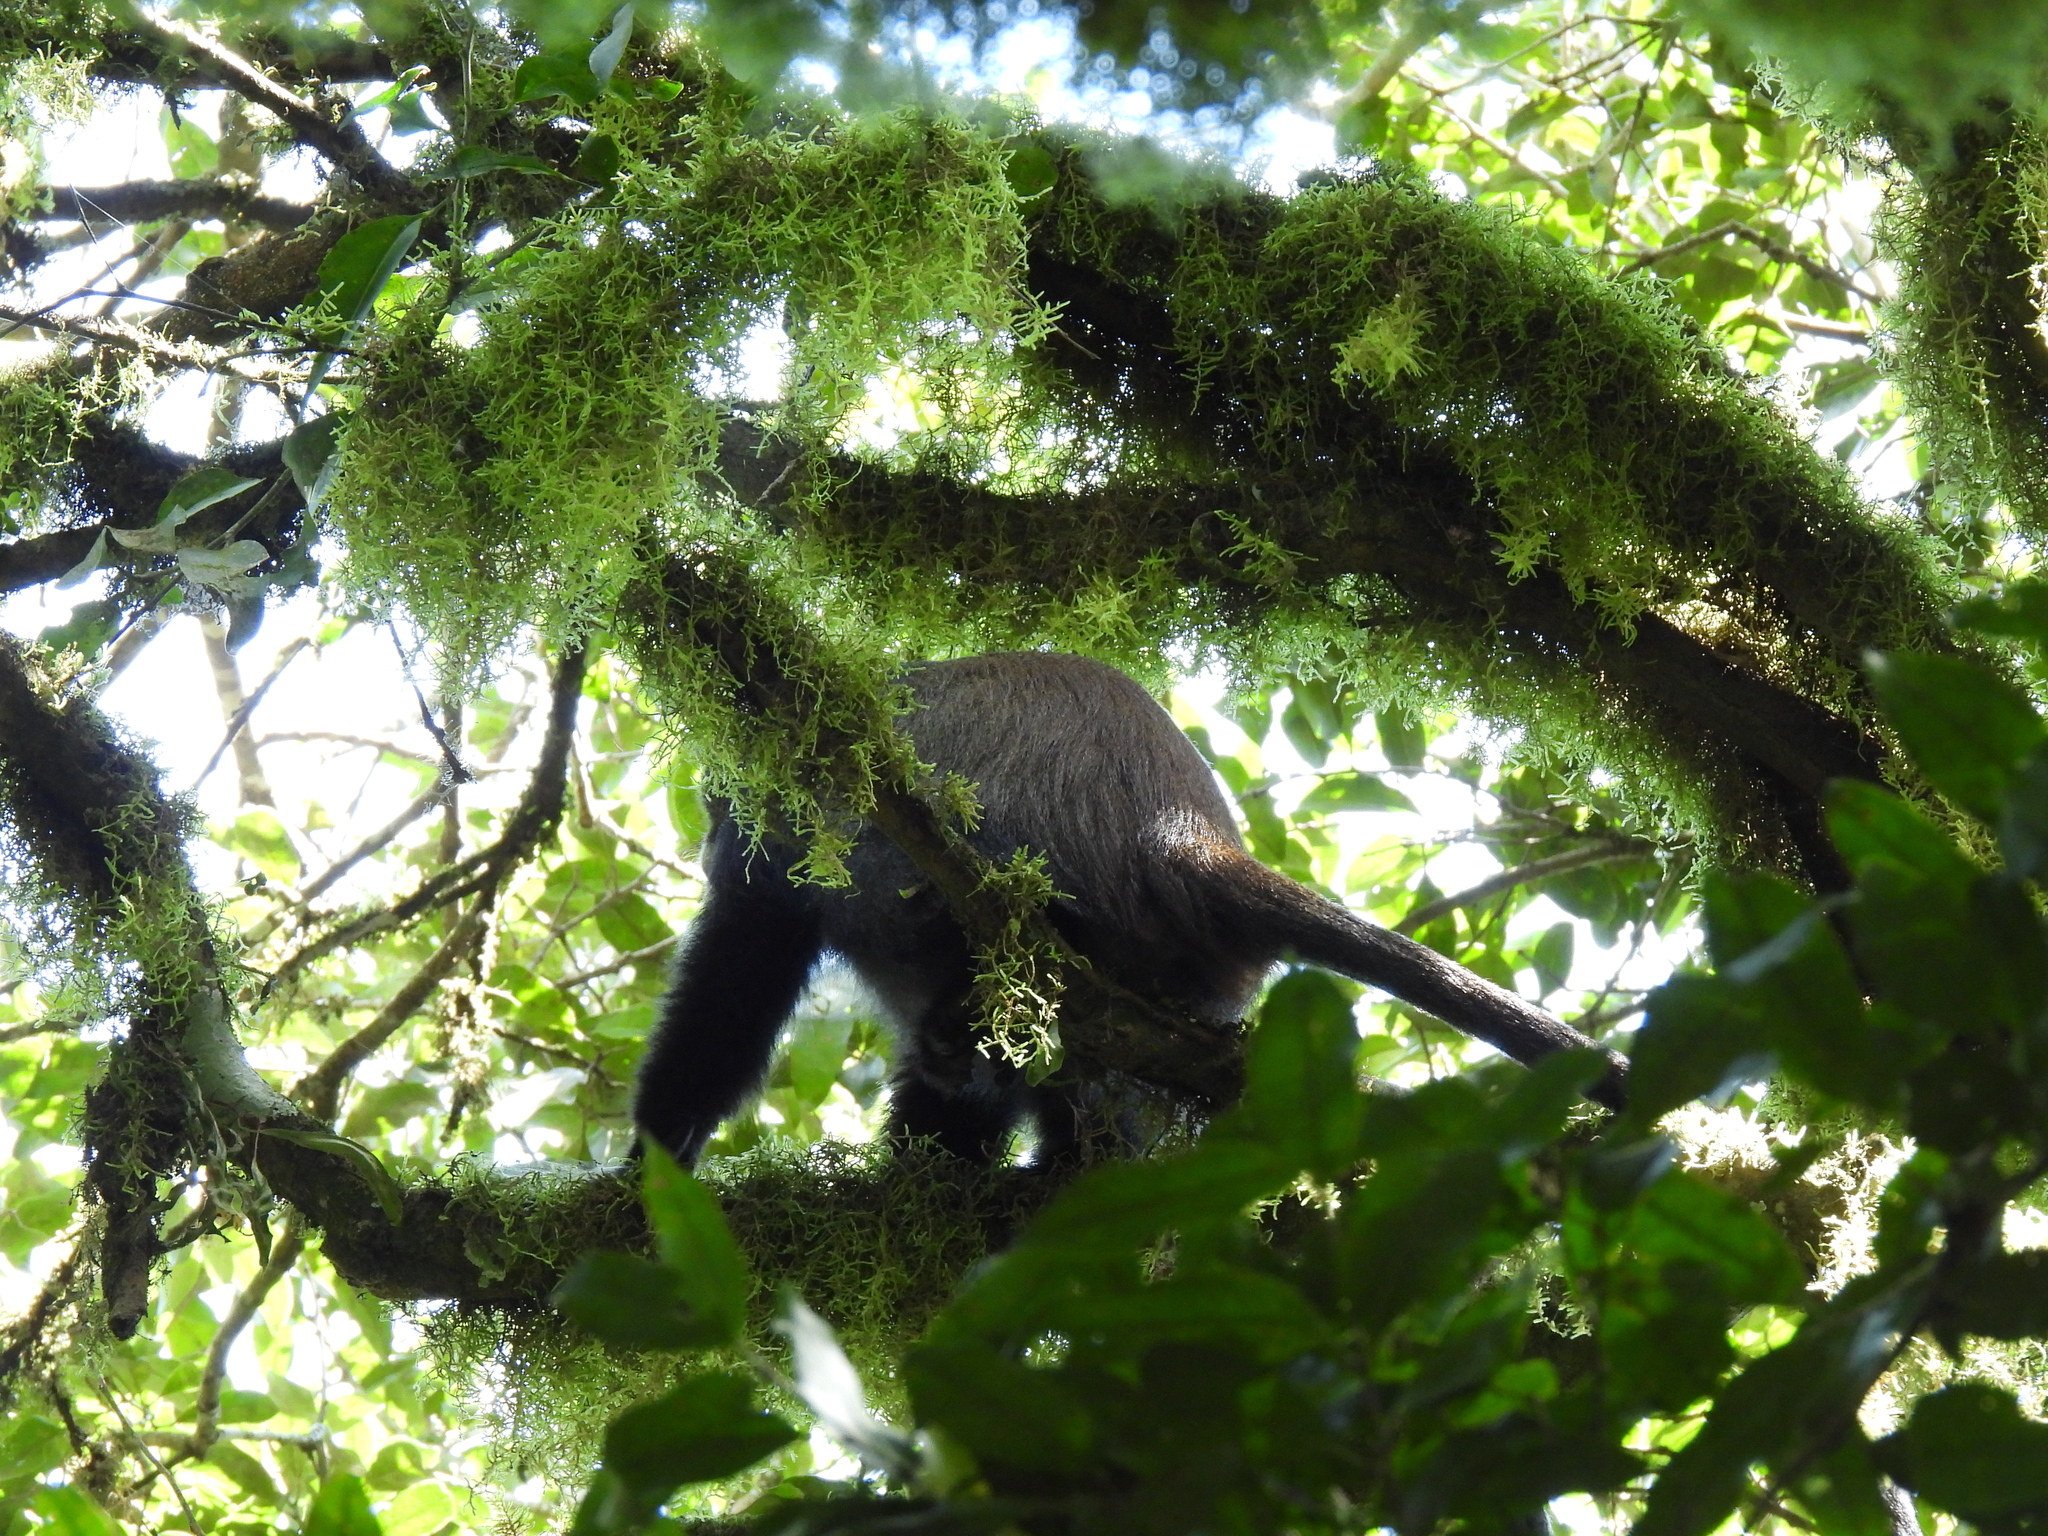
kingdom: Animalia
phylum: Chordata
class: Mammalia
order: Primates
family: Cercopithecidae
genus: Cercopithecus
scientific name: Cercopithecus mitis
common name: Blue monkey
